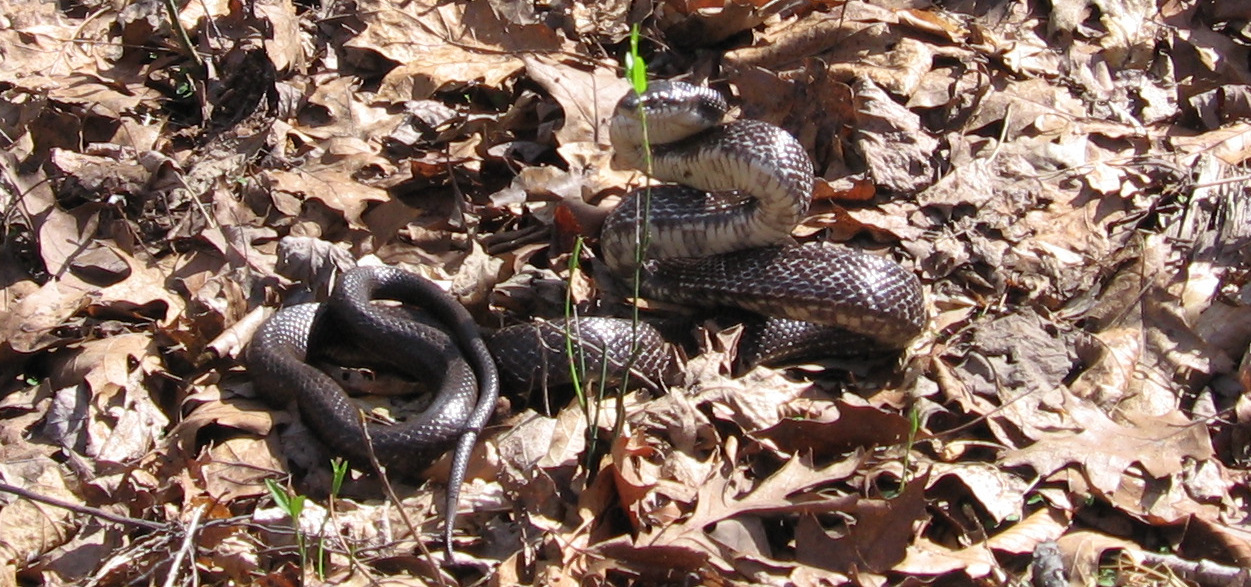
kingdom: Animalia
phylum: Chordata
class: Squamata
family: Colubridae
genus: Pantherophis
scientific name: Pantherophis alleghaniensis
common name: Eastern rat snake
